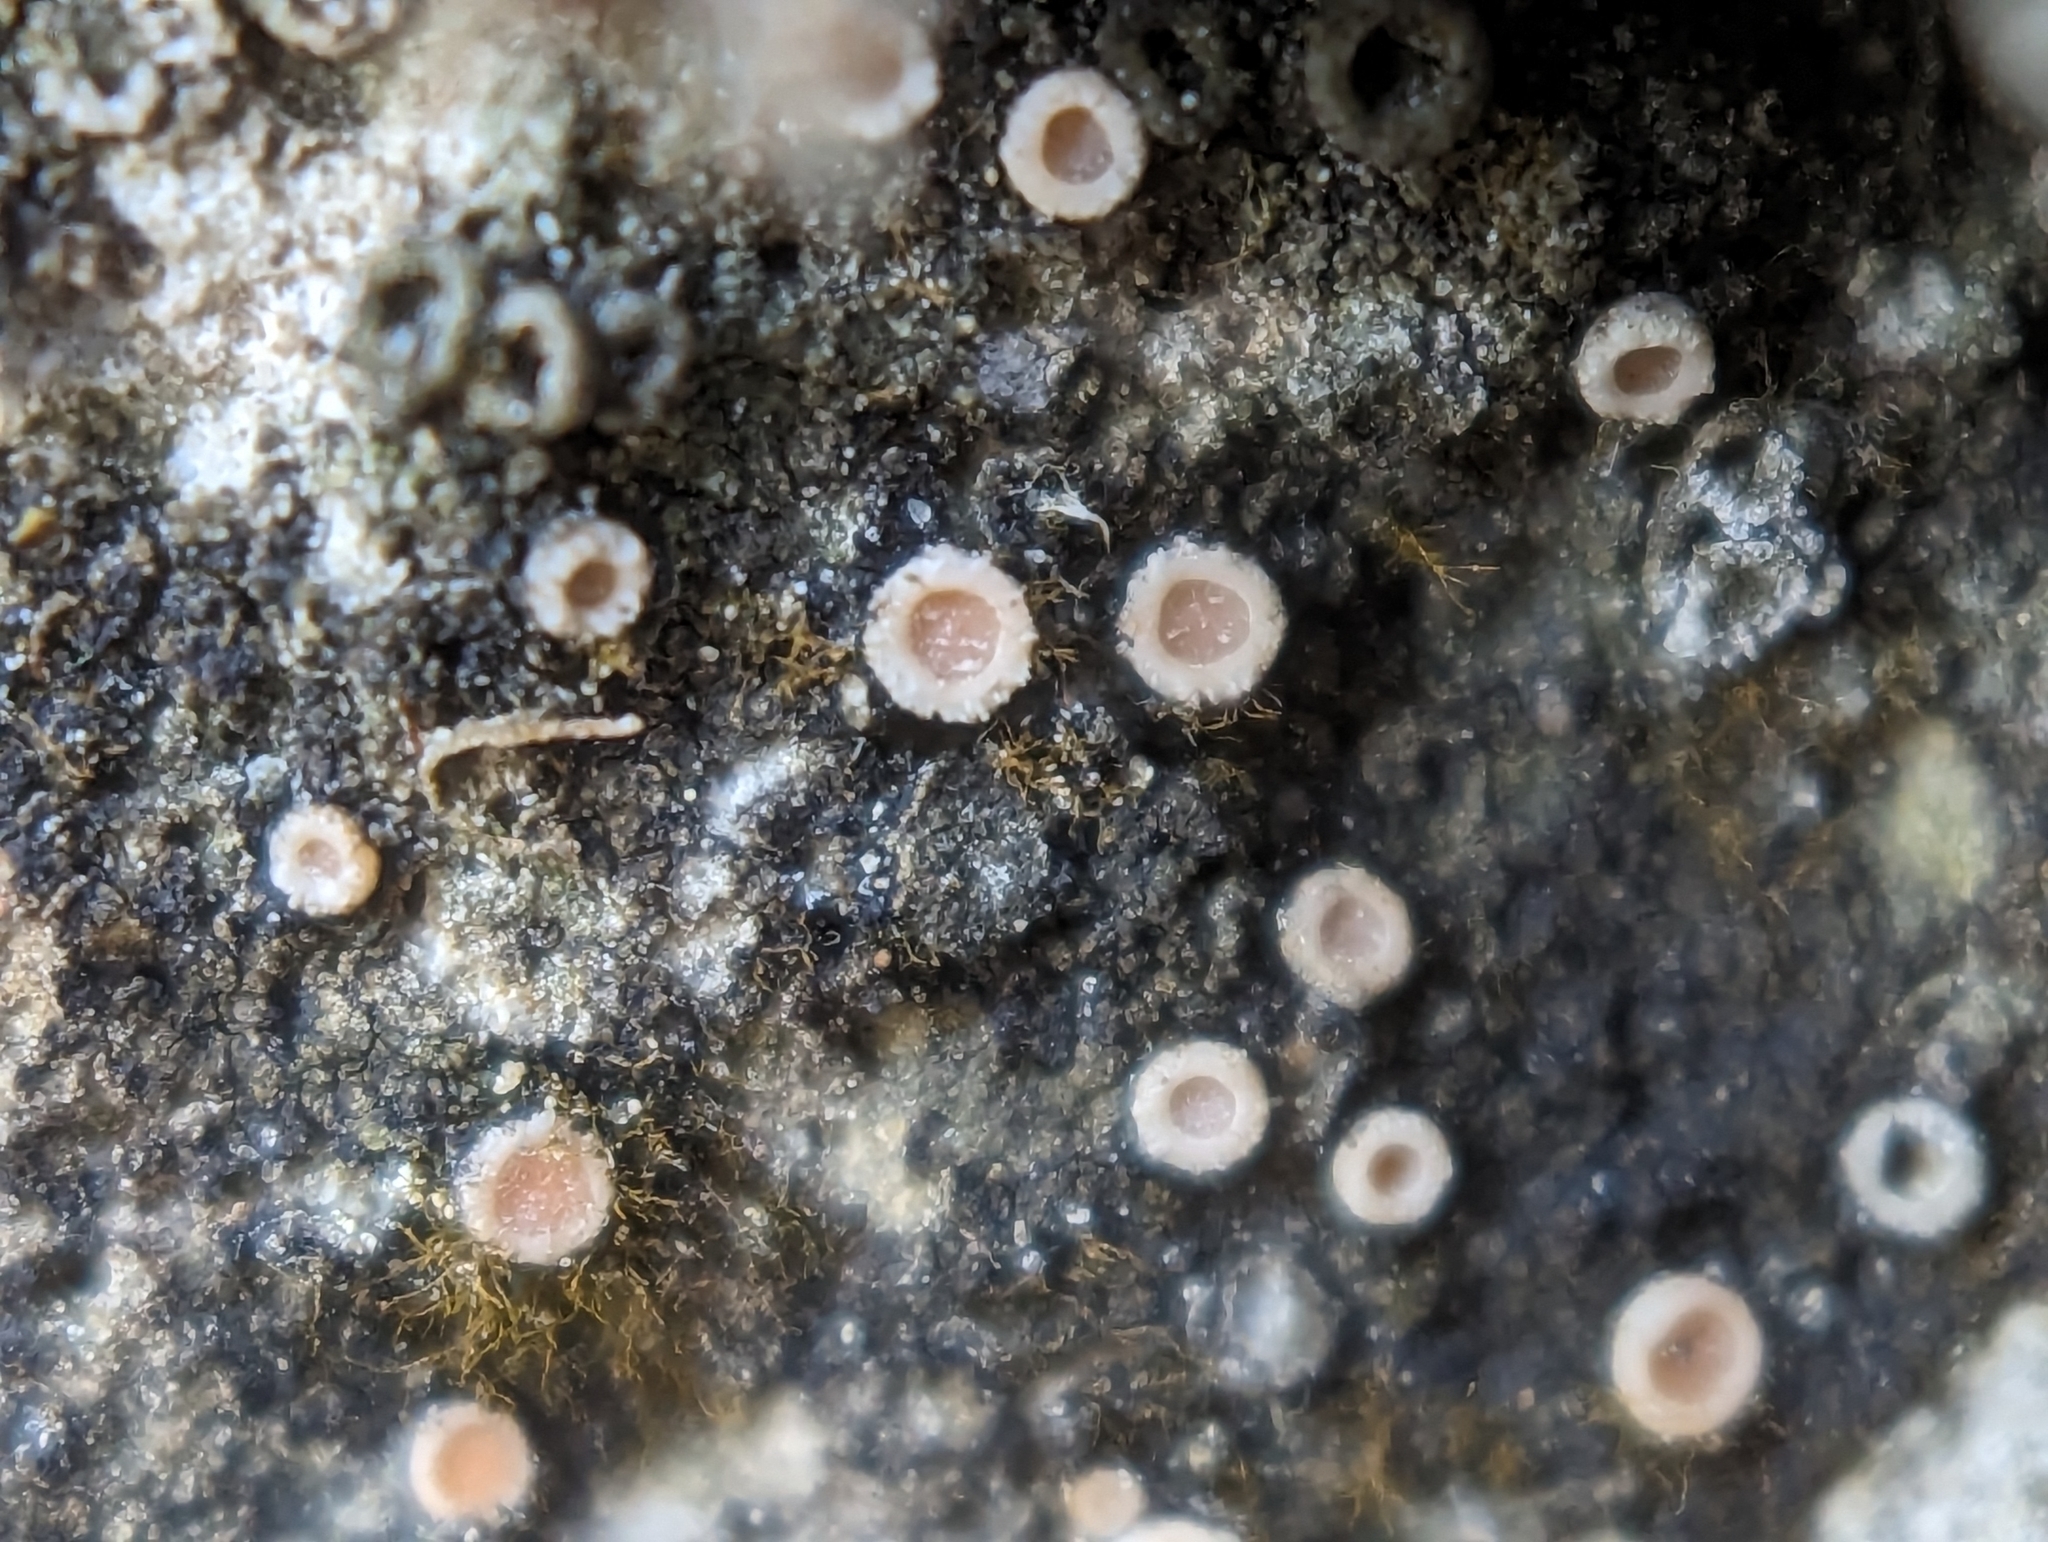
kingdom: Fungi
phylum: Ascomycota
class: Lecanoromycetes
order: Gyalectales
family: Gyalectaceae
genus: Gyalecta
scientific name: Gyalecta jenensis
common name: Rock dimple lichen
